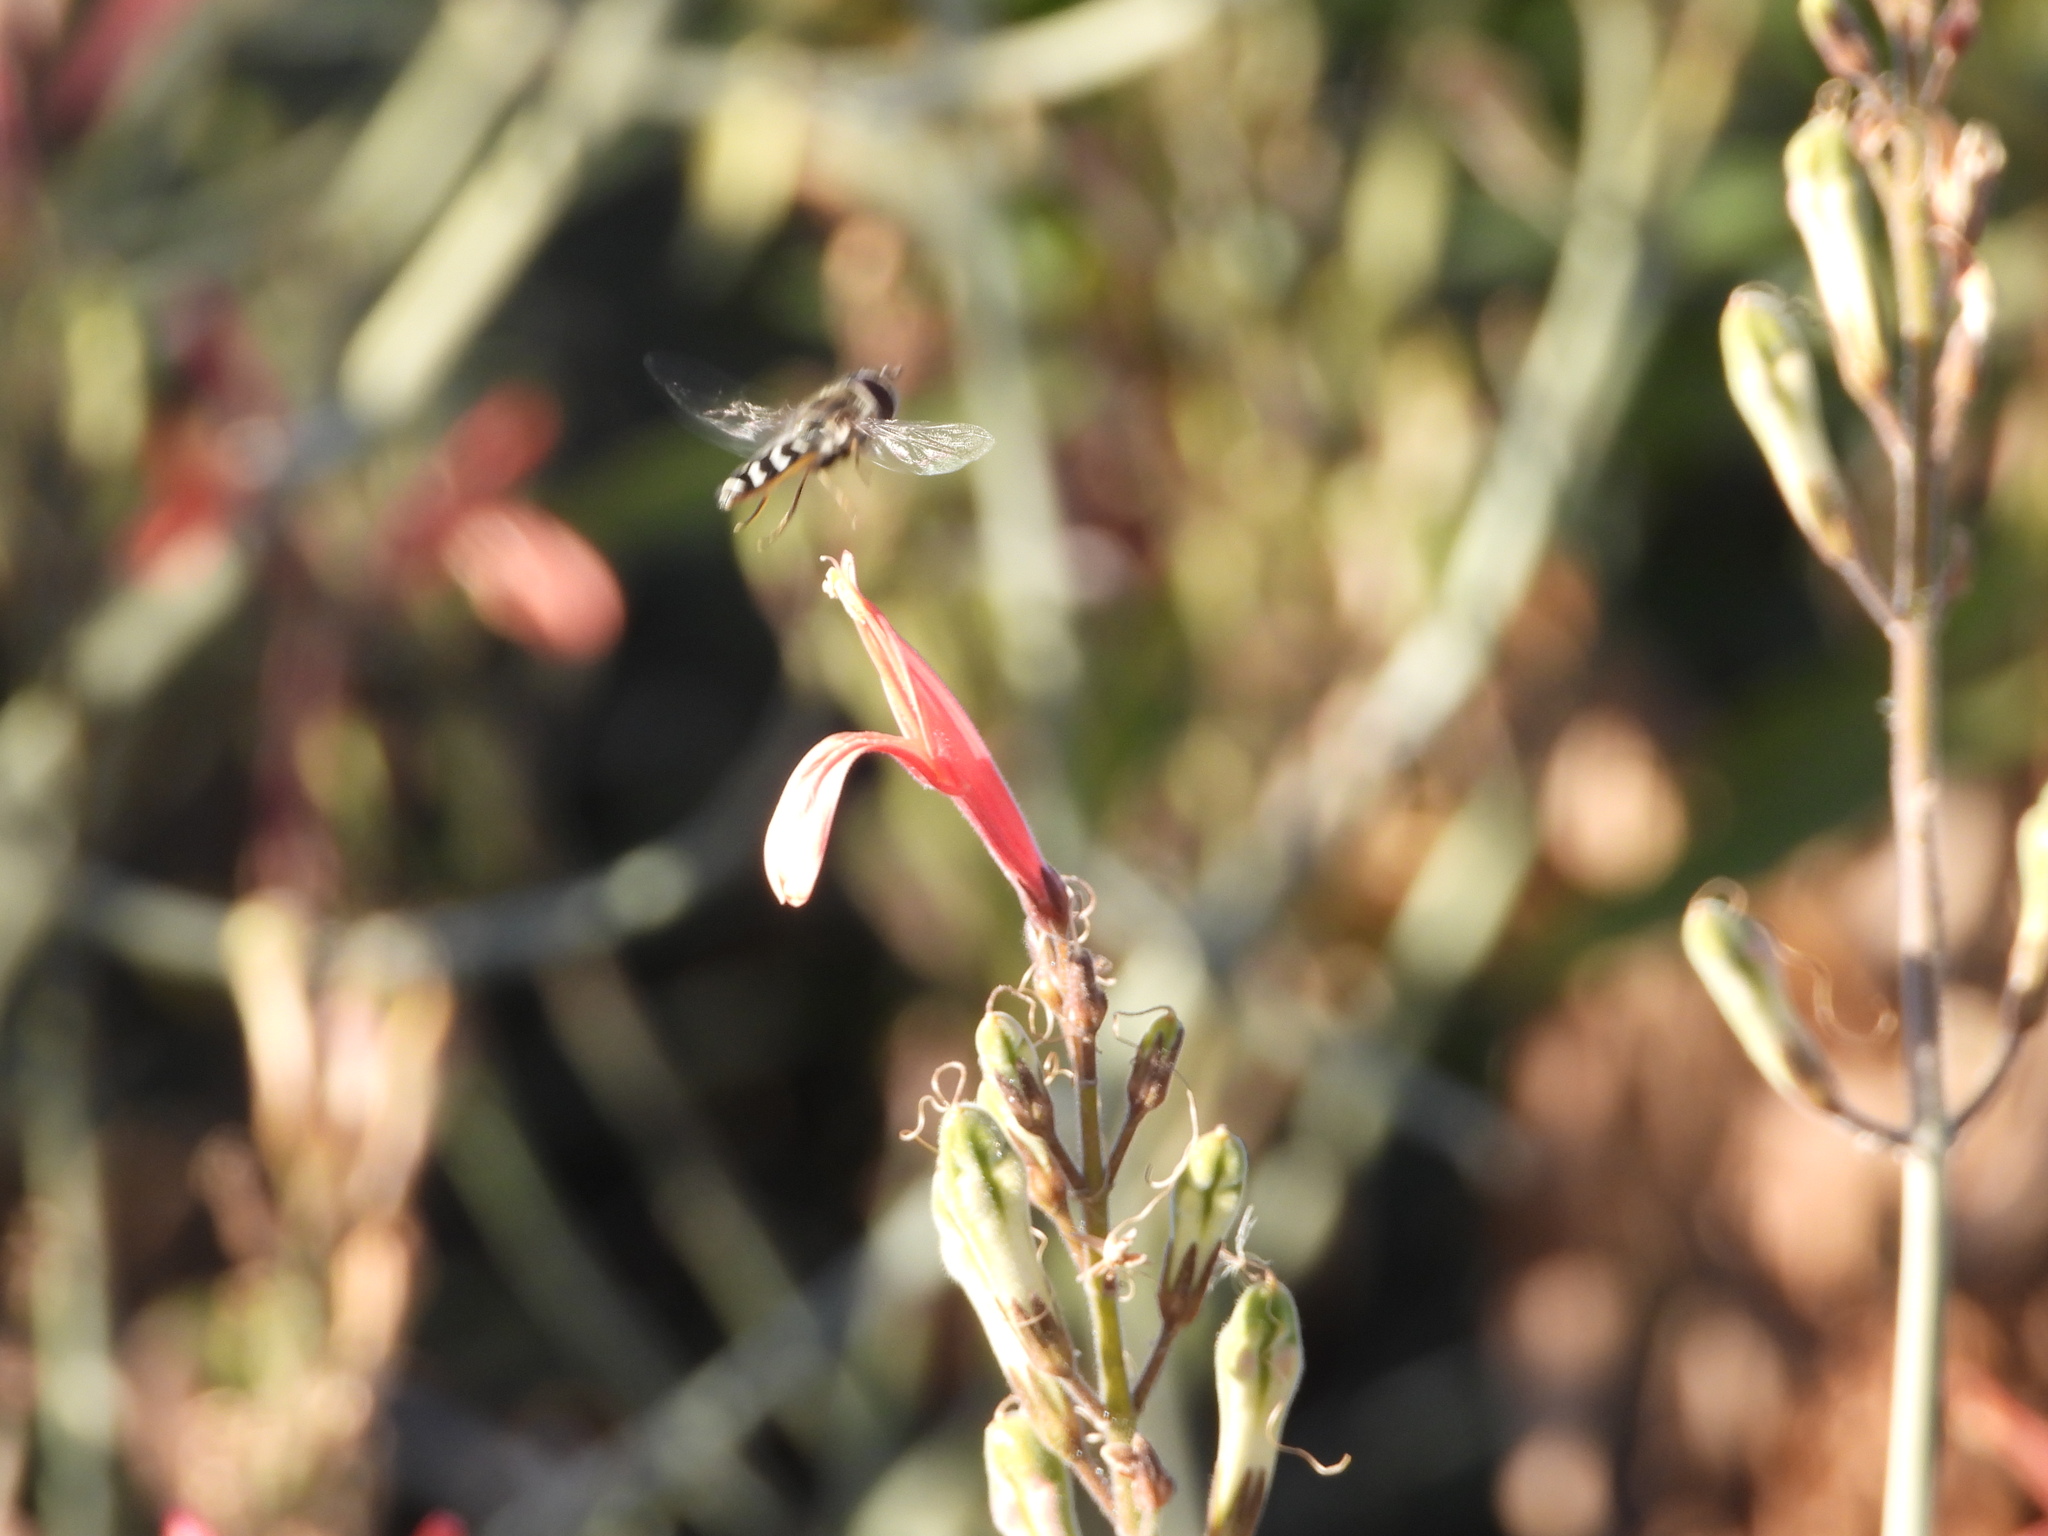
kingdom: Animalia
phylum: Arthropoda
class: Insecta
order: Diptera
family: Syrphidae
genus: Scaeva
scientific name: Scaeva affinis
